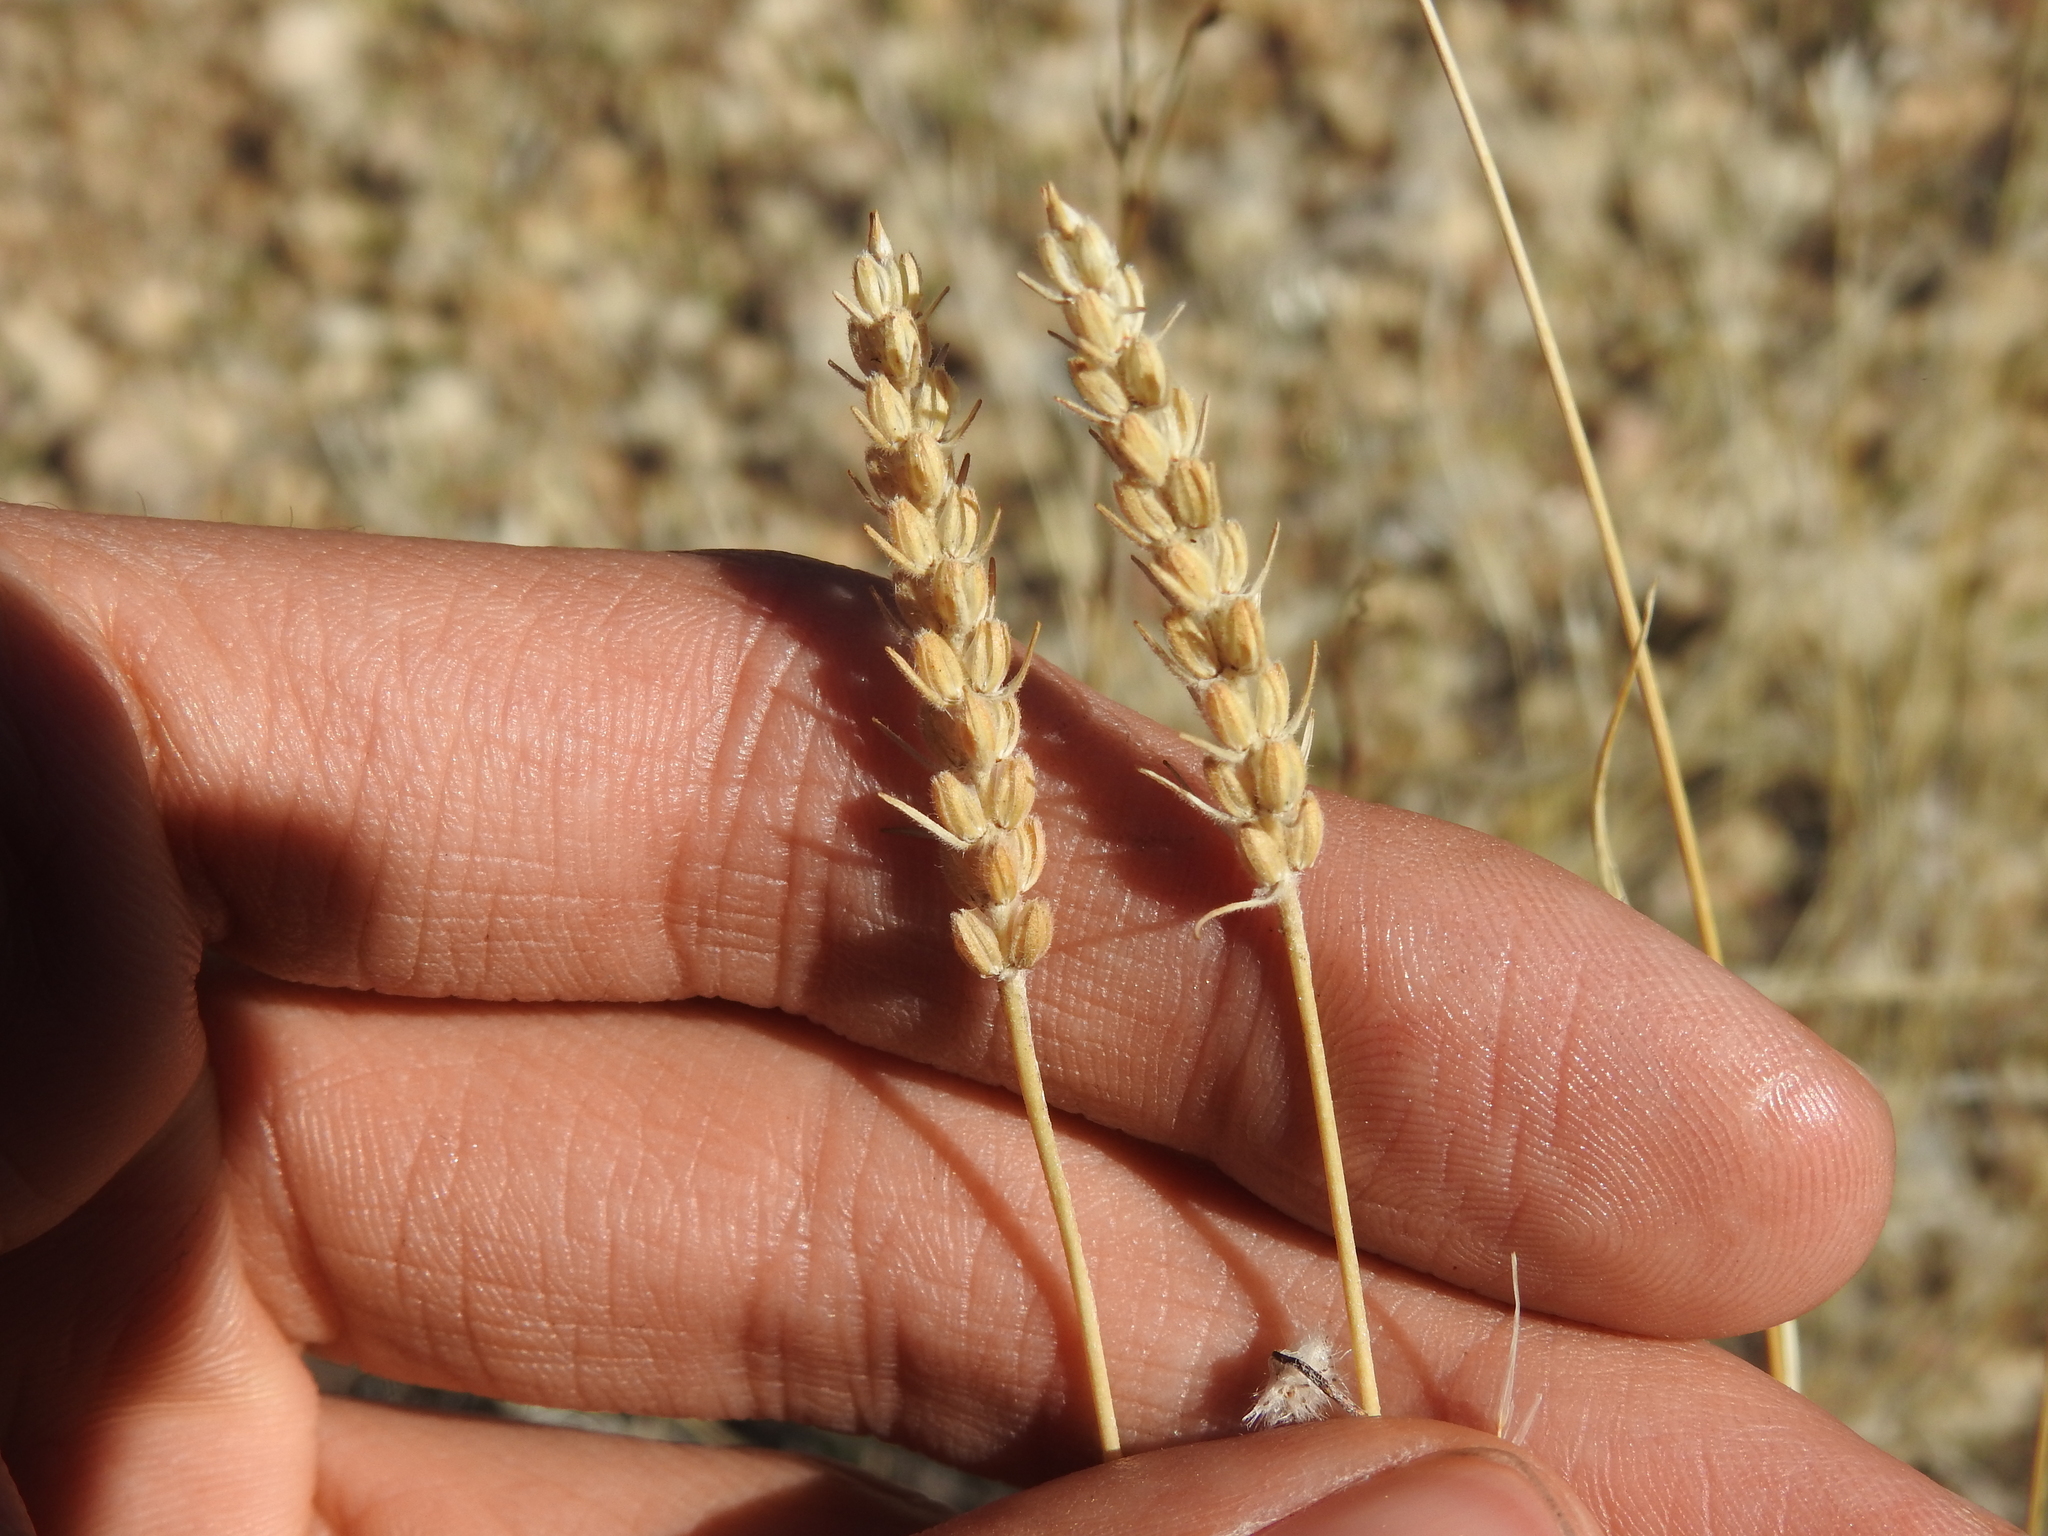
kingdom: Plantae
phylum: Tracheophyta
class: Magnoliopsida
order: Lamiales
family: Plantaginaceae
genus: Plantago
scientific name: Plantago patagonica
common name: Patagonia indian-wheat
